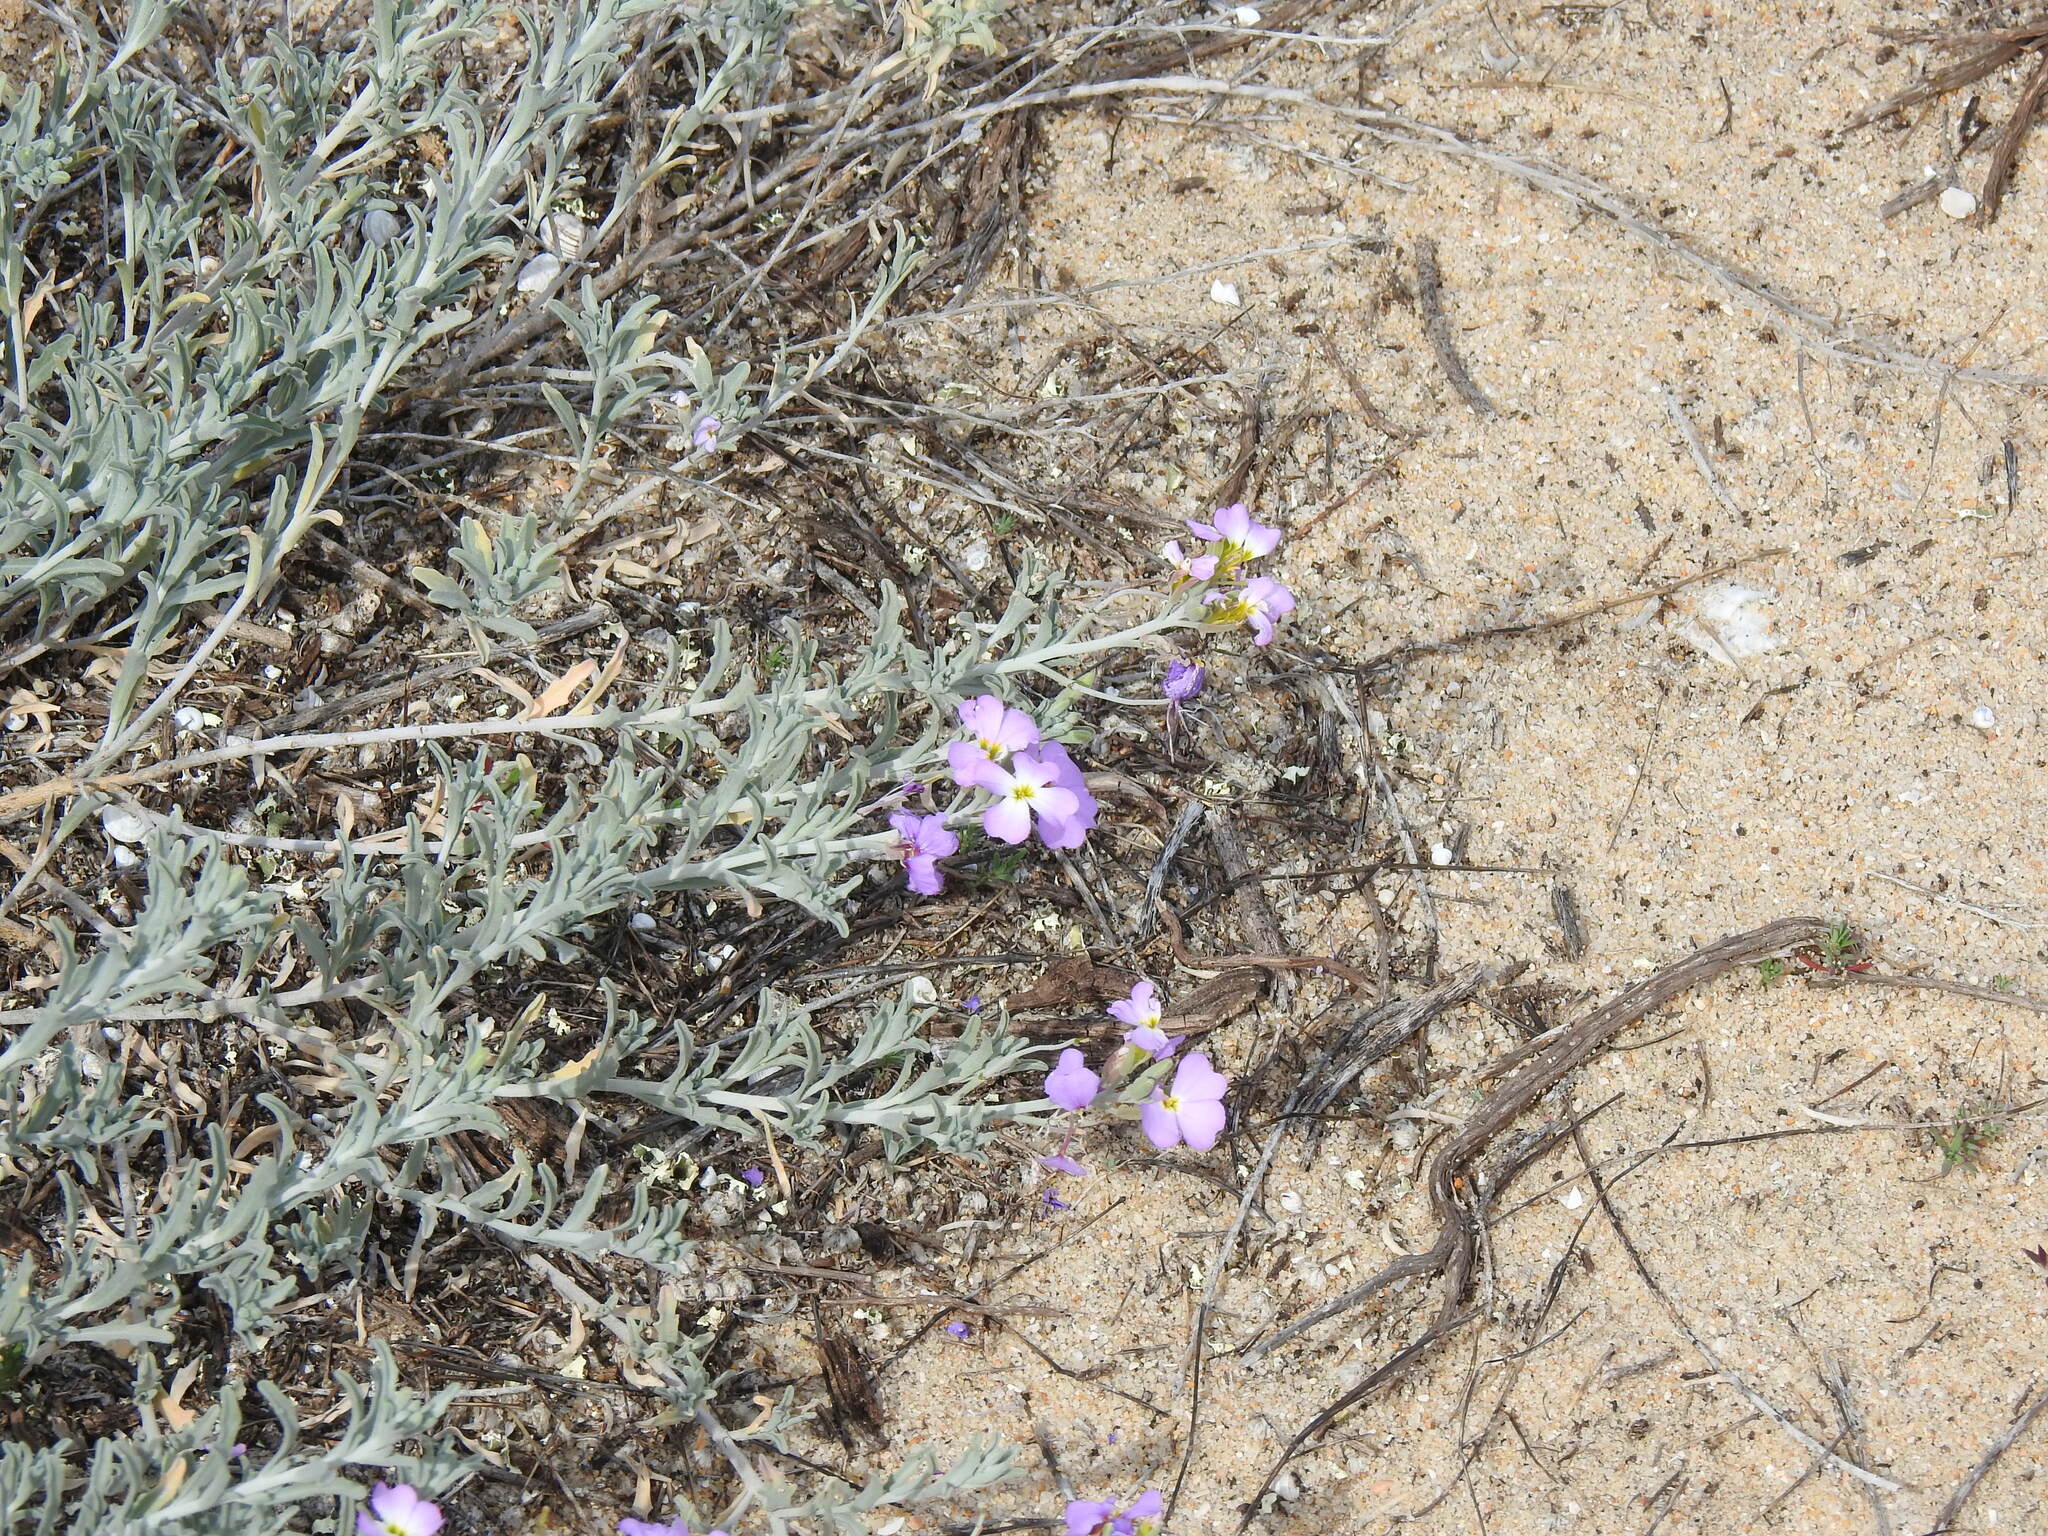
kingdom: Plantae
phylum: Tracheophyta
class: Magnoliopsida
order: Brassicales
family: Brassicaceae
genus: Marcuskochia
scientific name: Marcuskochia littorea
